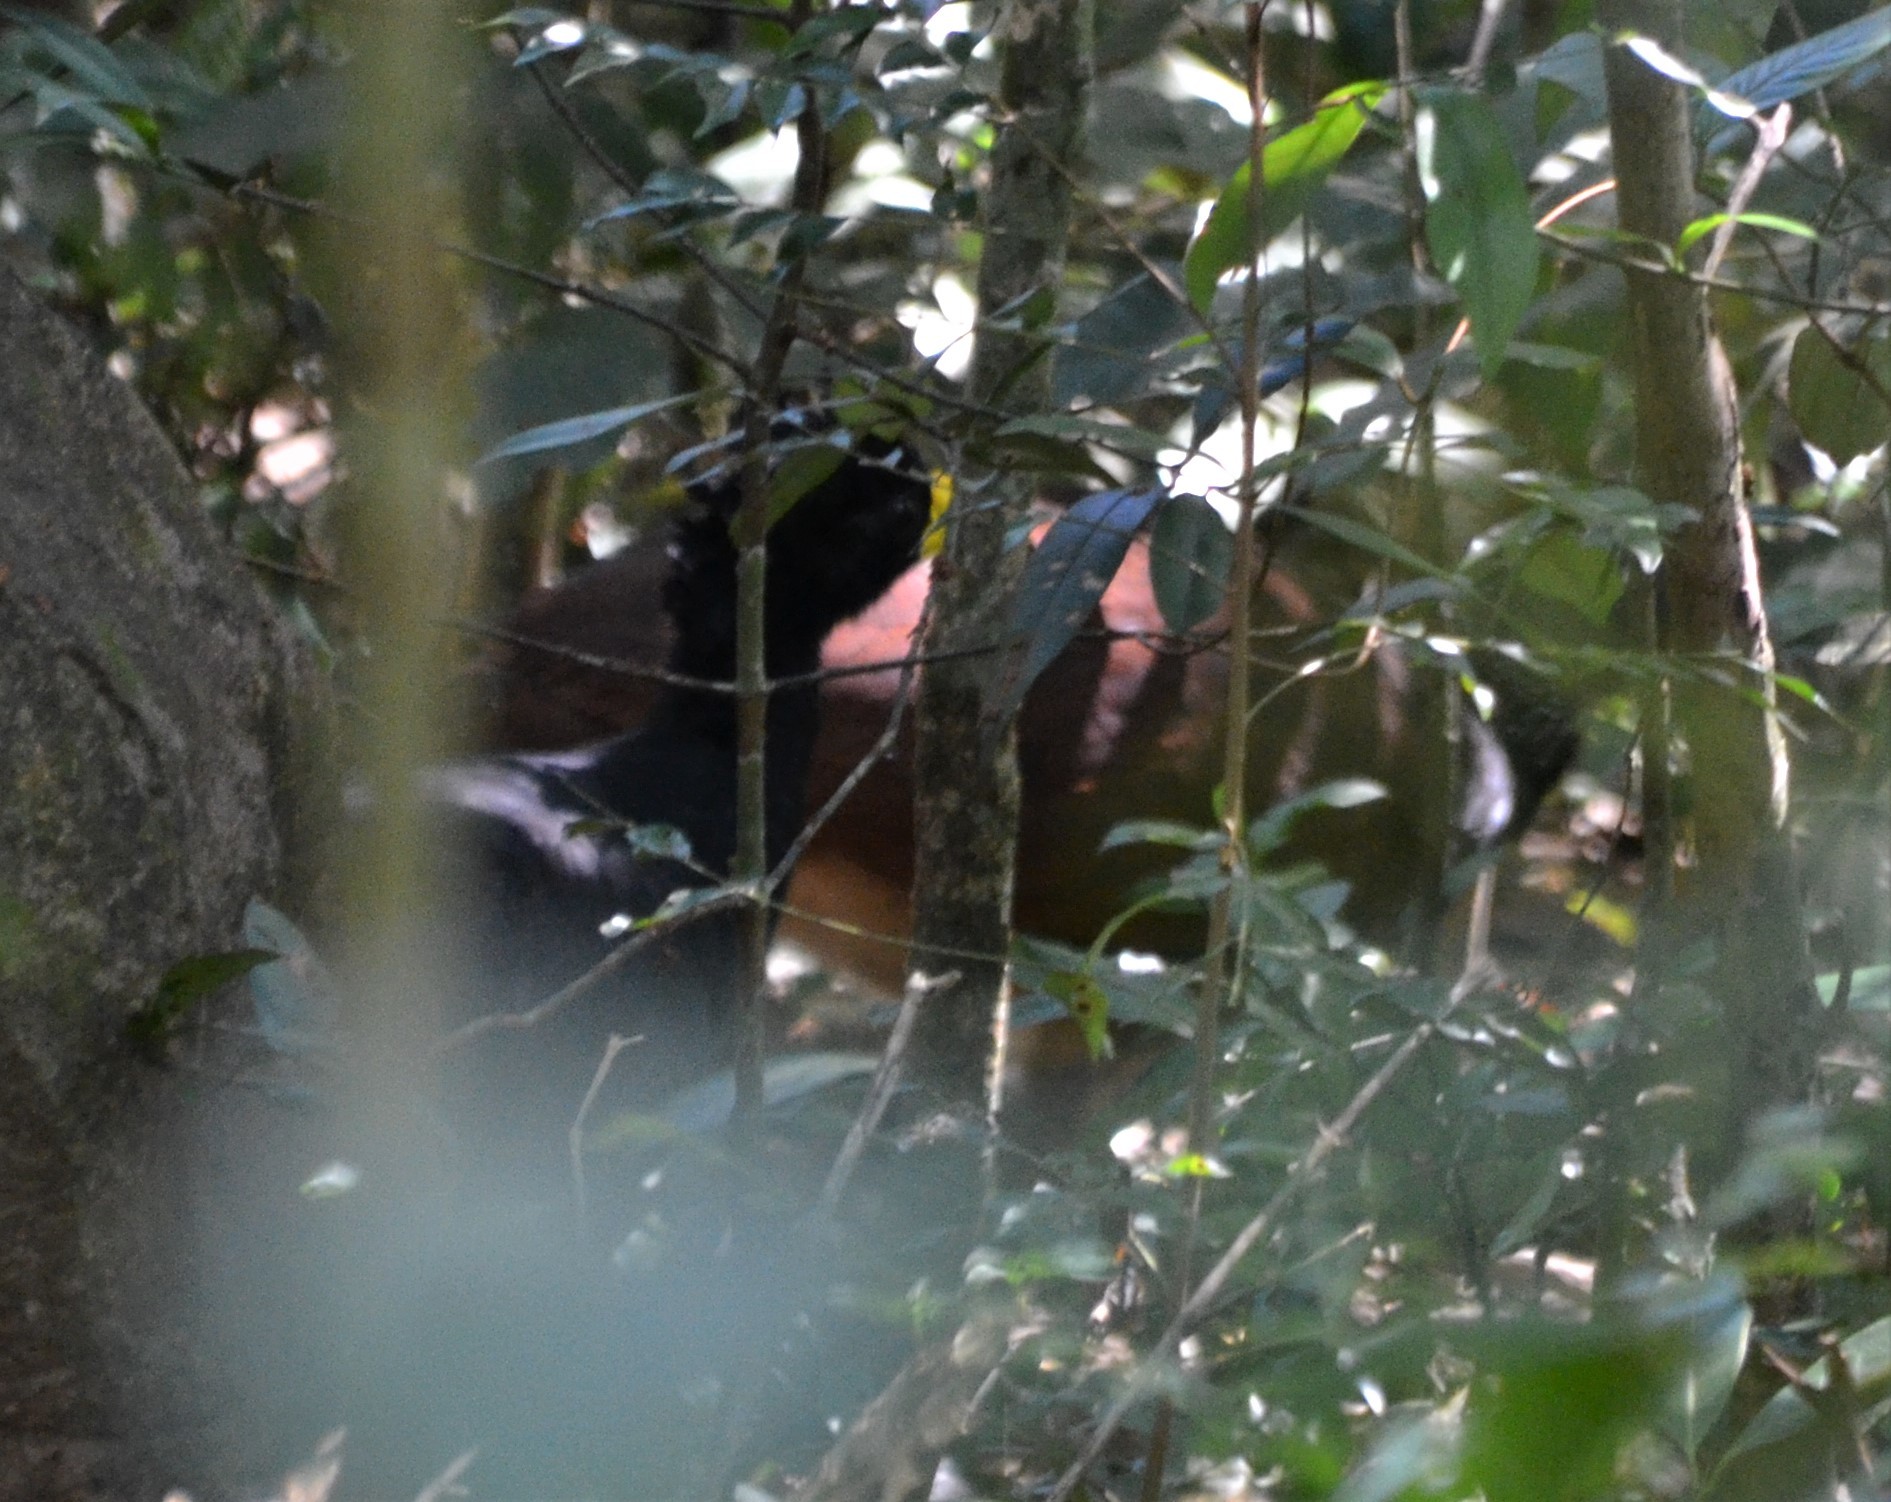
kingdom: Animalia
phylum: Chordata
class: Aves
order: Galliformes
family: Cracidae
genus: Crax
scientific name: Crax rubra
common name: Great curassow
